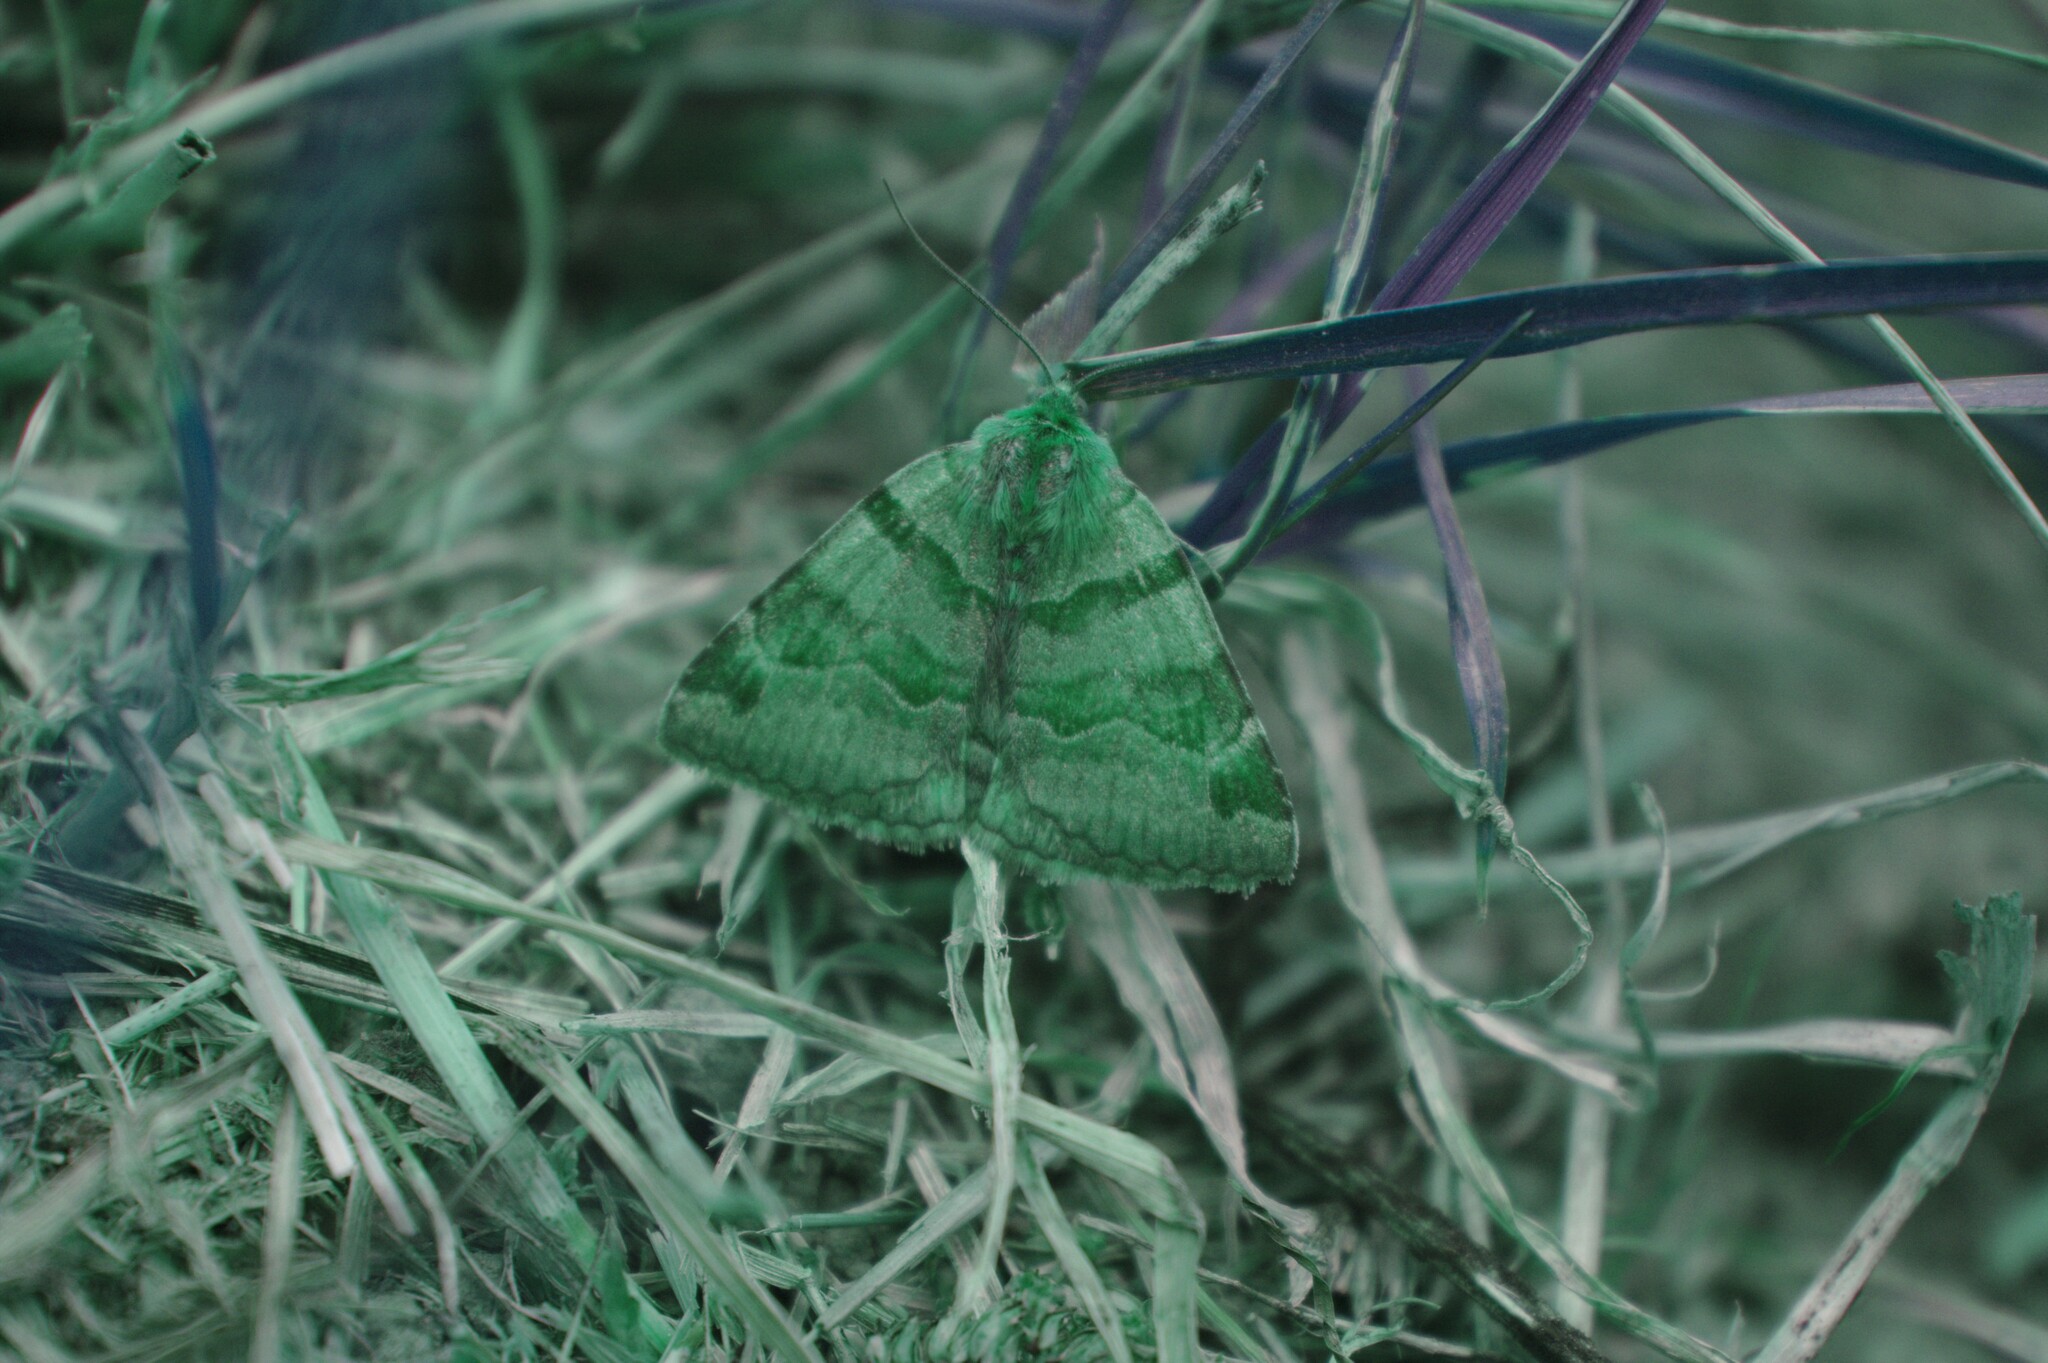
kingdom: Animalia
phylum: Arthropoda
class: Insecta
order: Lepidoptera
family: Erebidae
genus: Euclidia
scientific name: Euclidia glyphica
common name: Burnet companion
